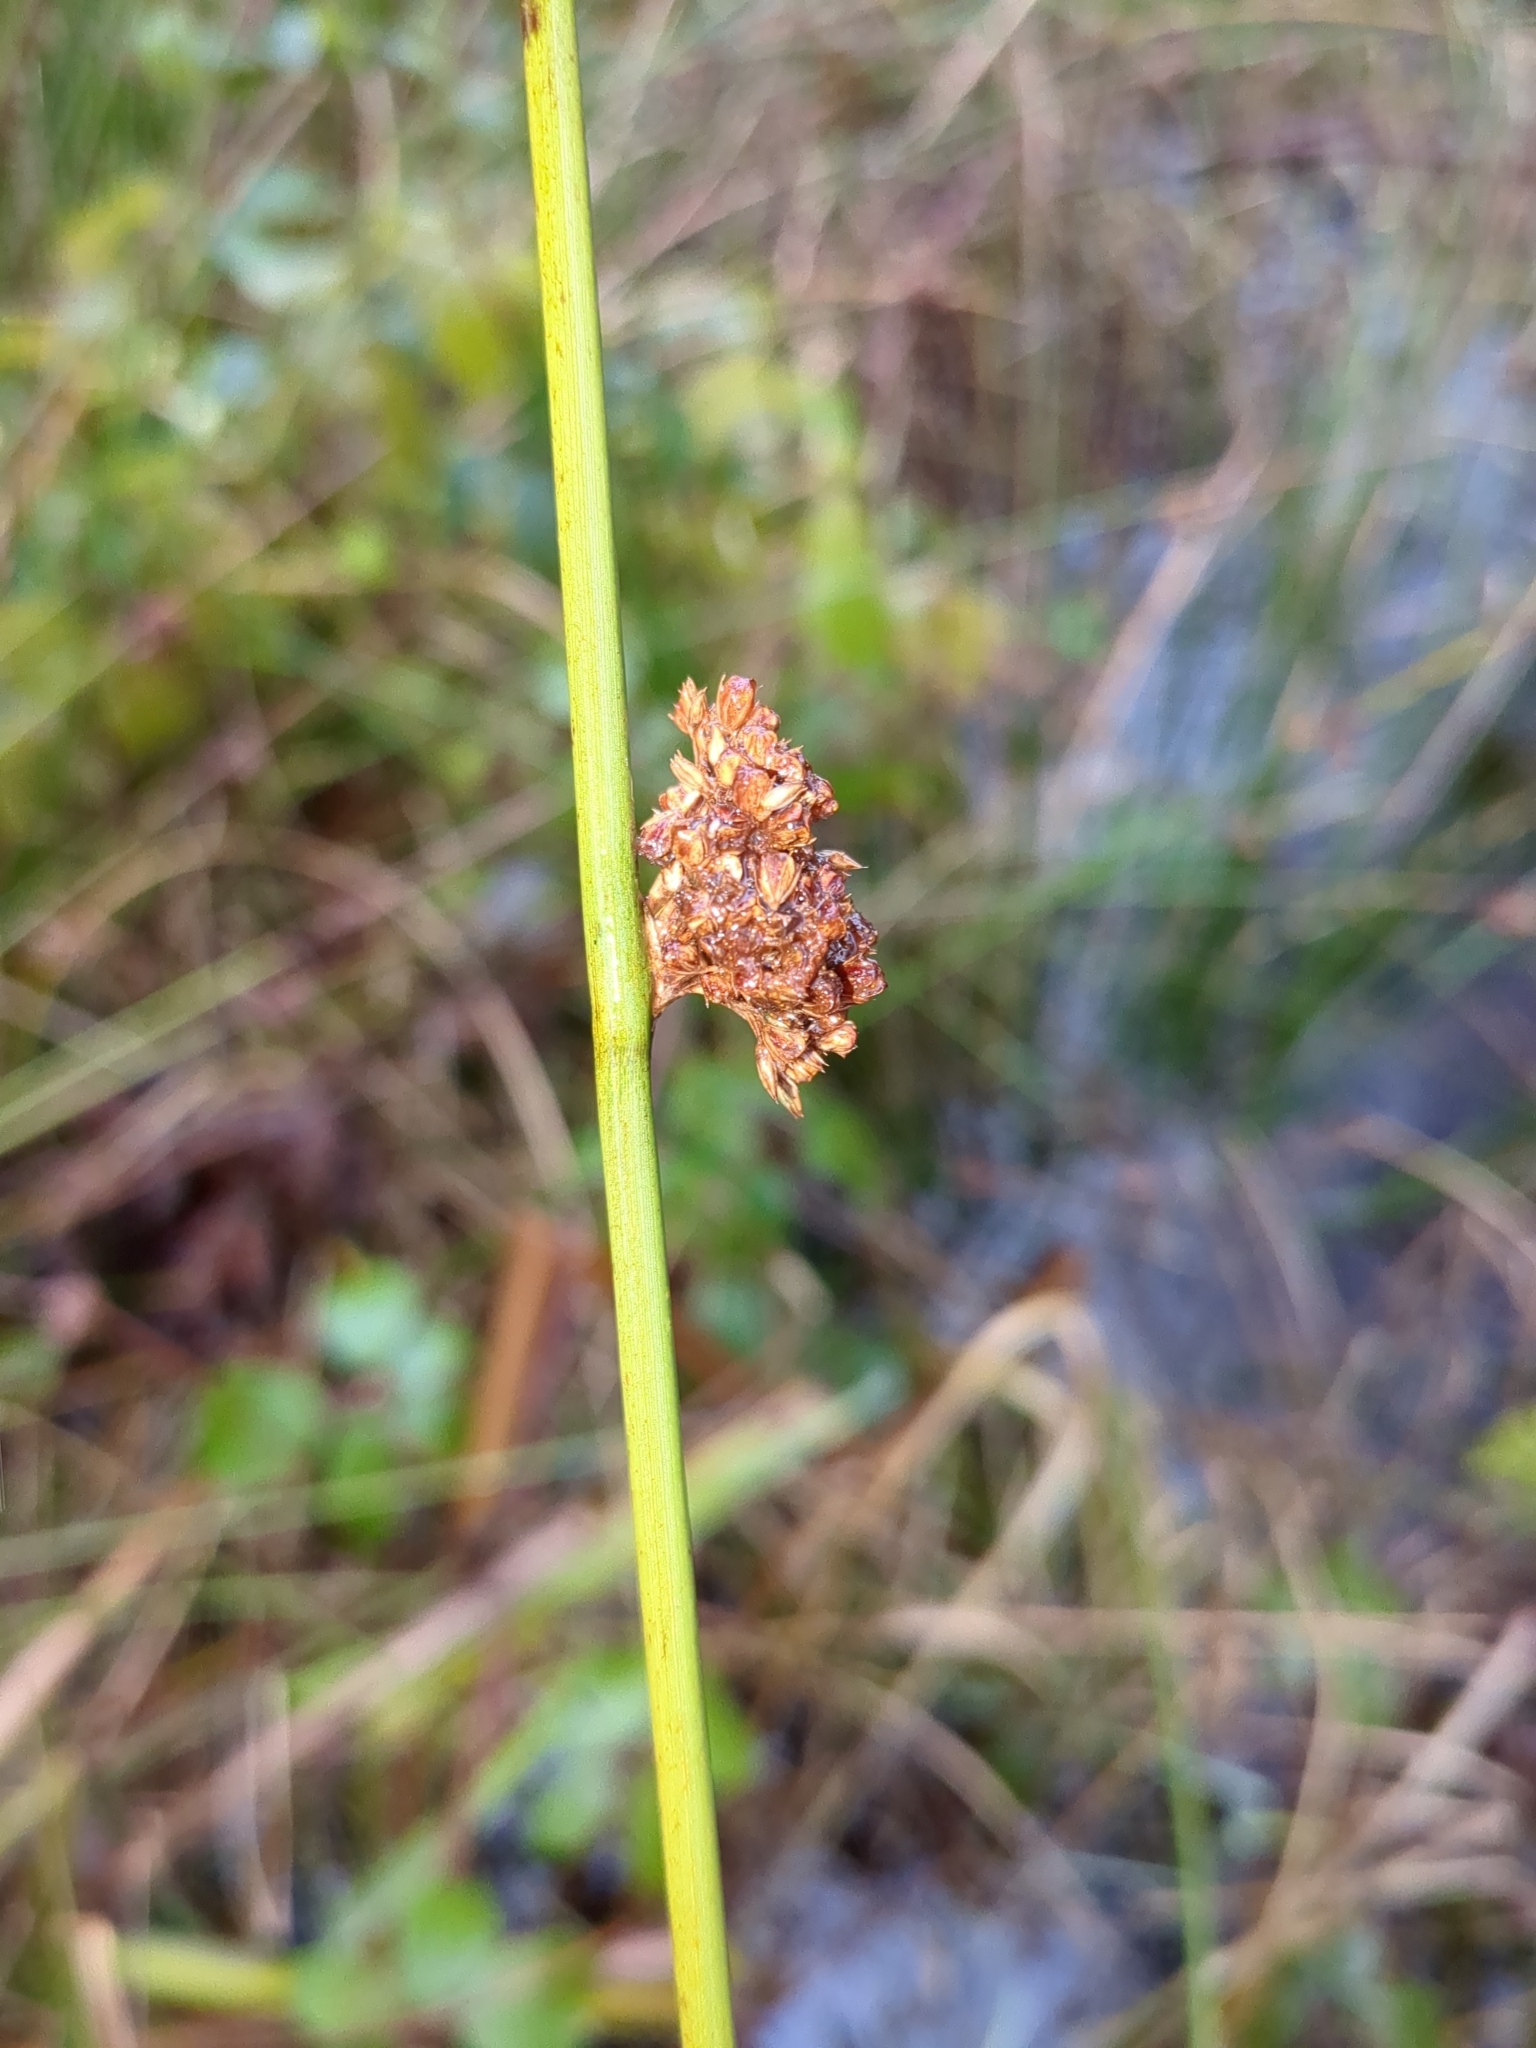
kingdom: Plantae
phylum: Tracheophyta
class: Liliopsida
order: Poales
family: Juncaceae
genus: Juncus
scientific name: Juncus effusus
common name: Soft rush
